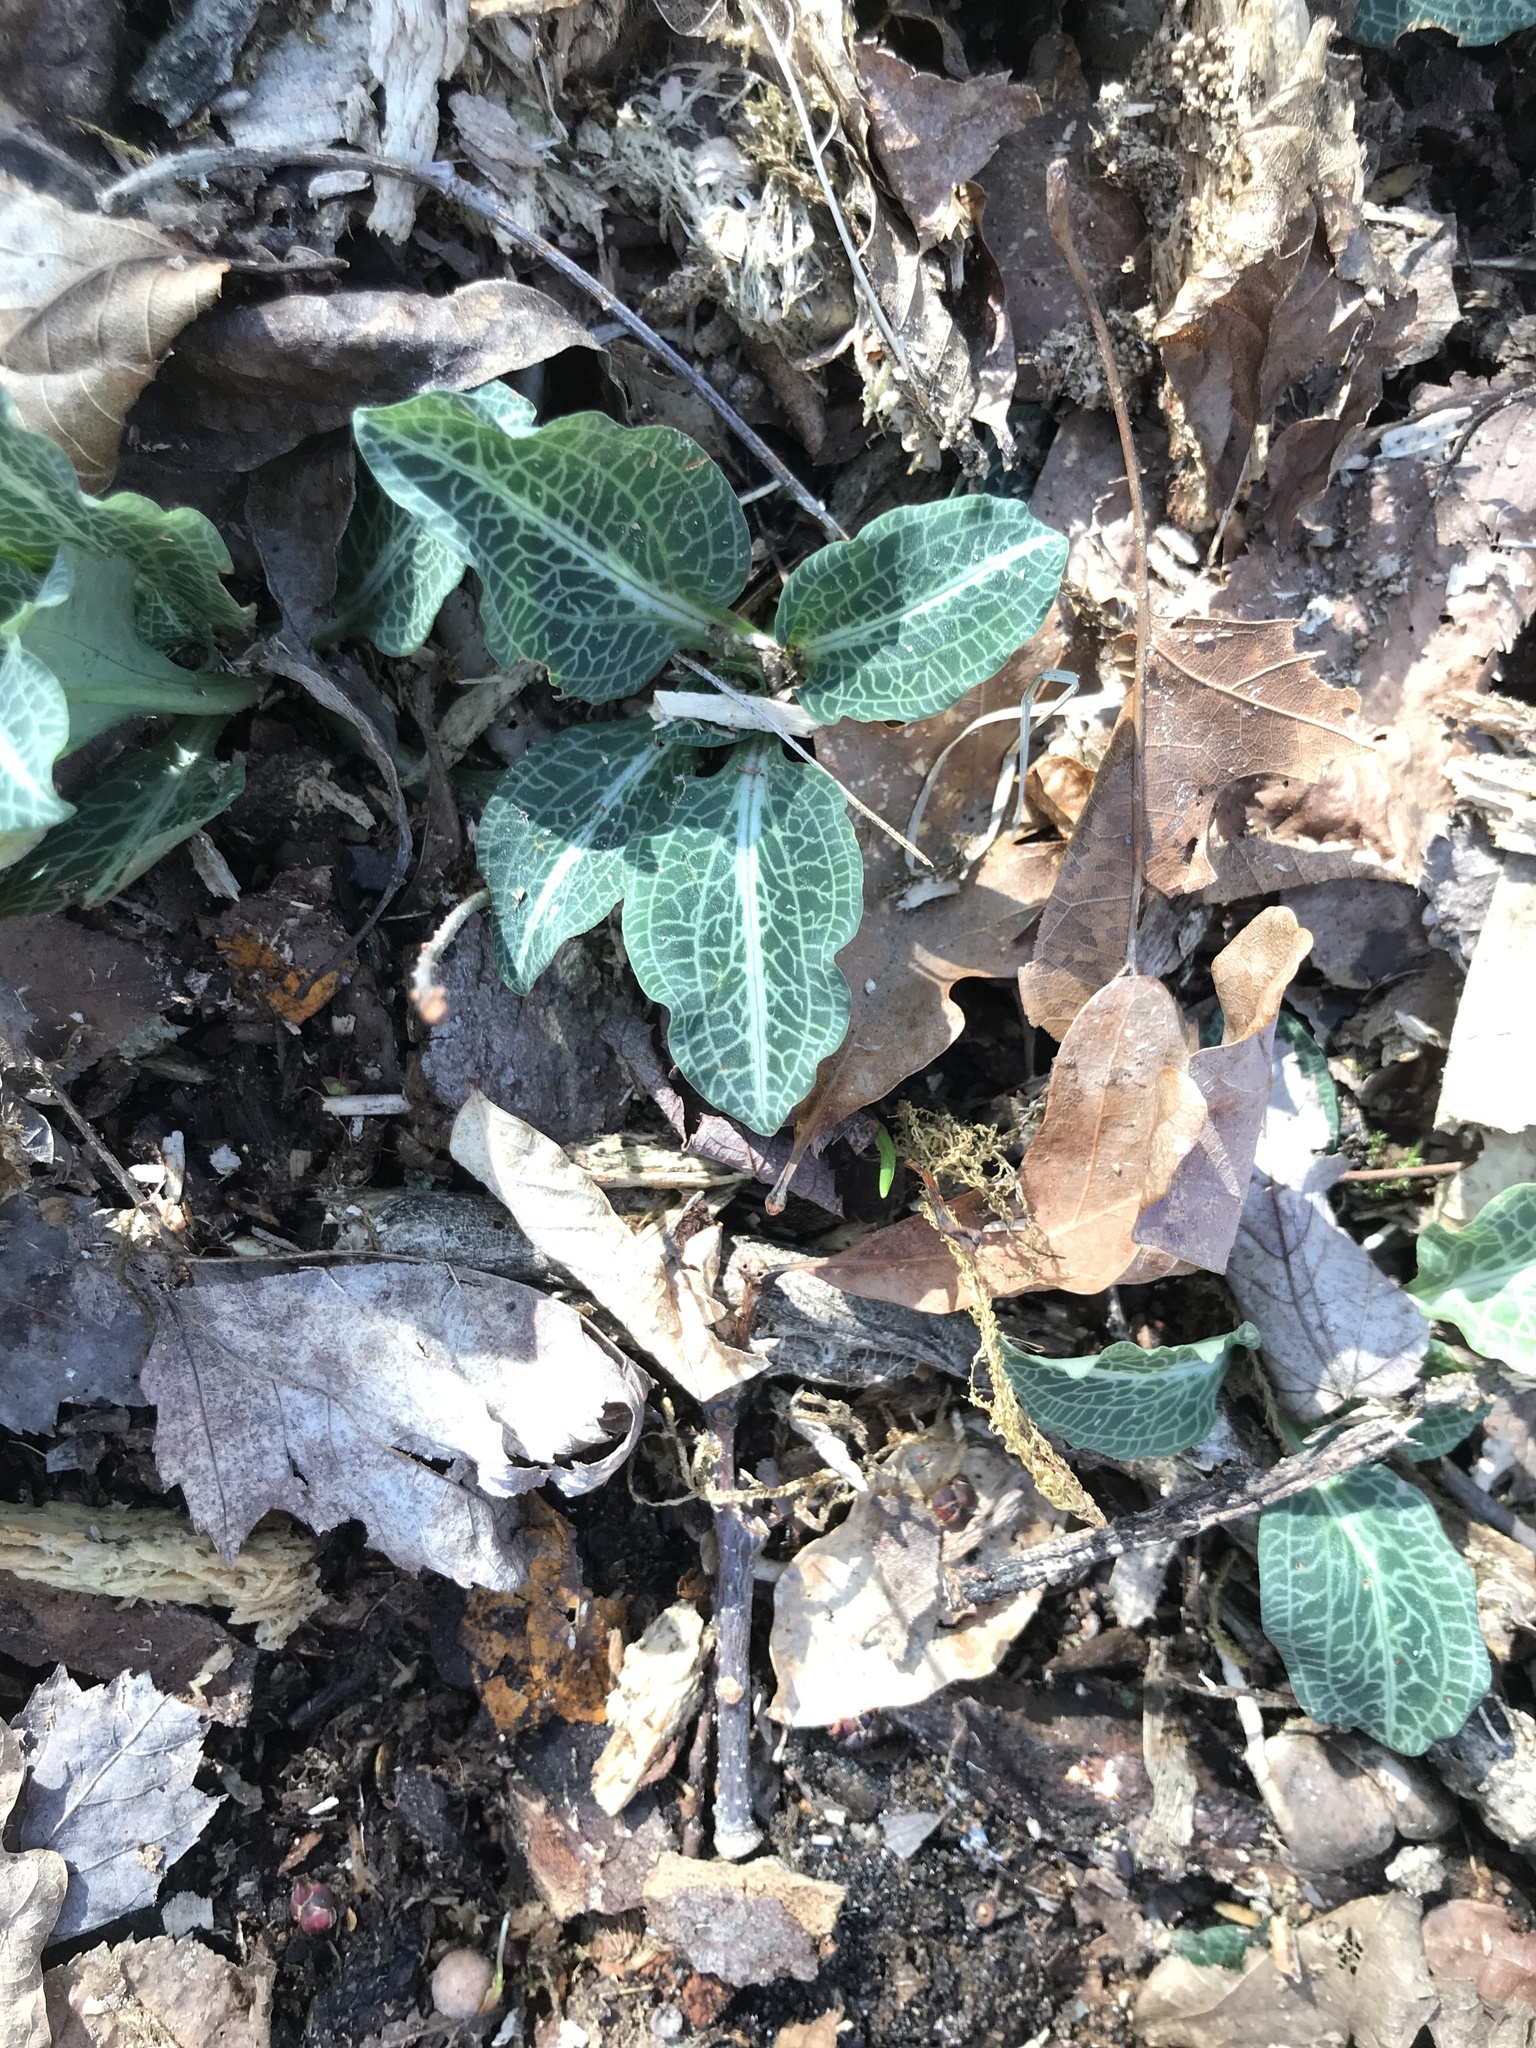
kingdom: Plantae
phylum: Tracheophyta
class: Liliopsida
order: Asparagales
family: Orchidaceae
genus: Goodyera
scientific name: Goodyera pubescens
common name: Downy rattlesnake-plantain
